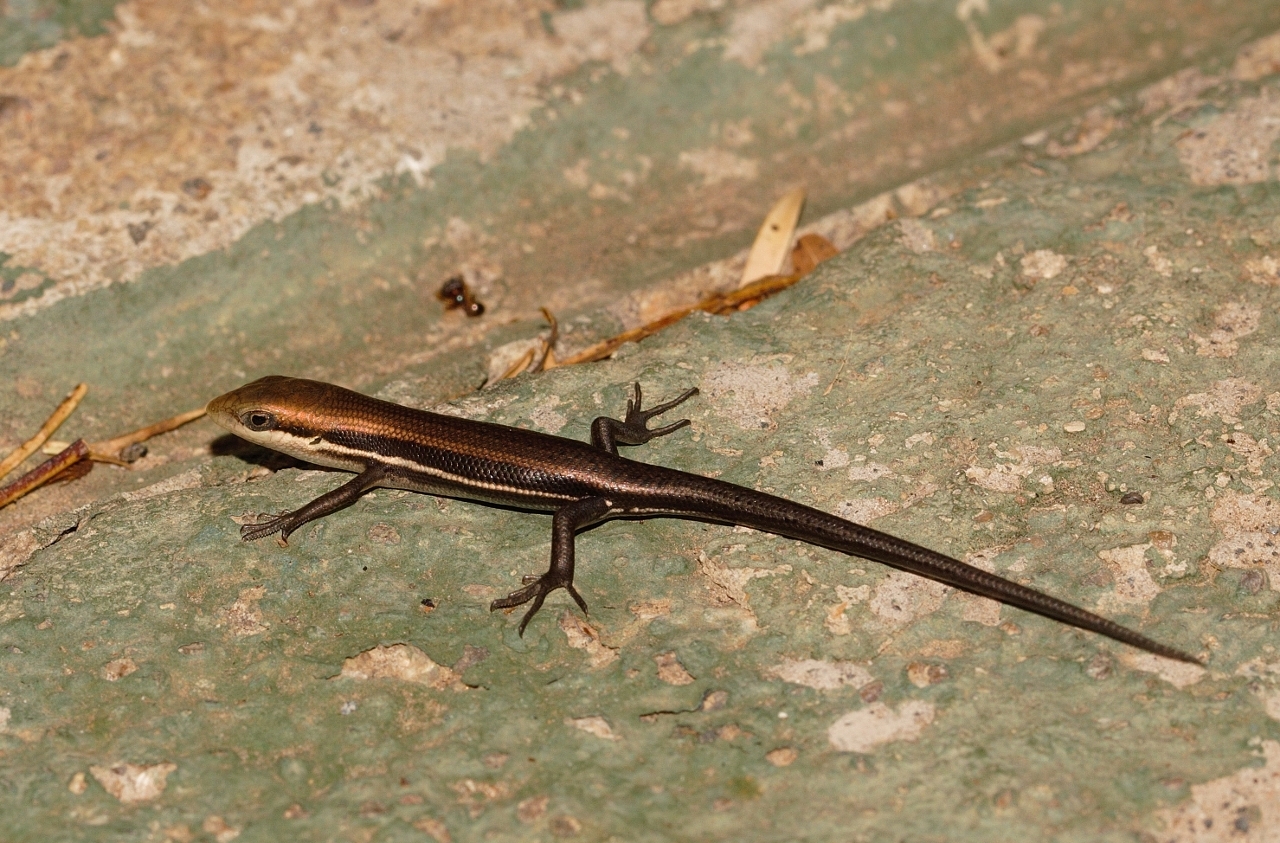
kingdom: Animalia
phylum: Chordata
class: Squamata
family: Scincidae
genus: Trachylepis
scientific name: Trachylepis wahlbergii
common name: Wahlberg’s striped skink
